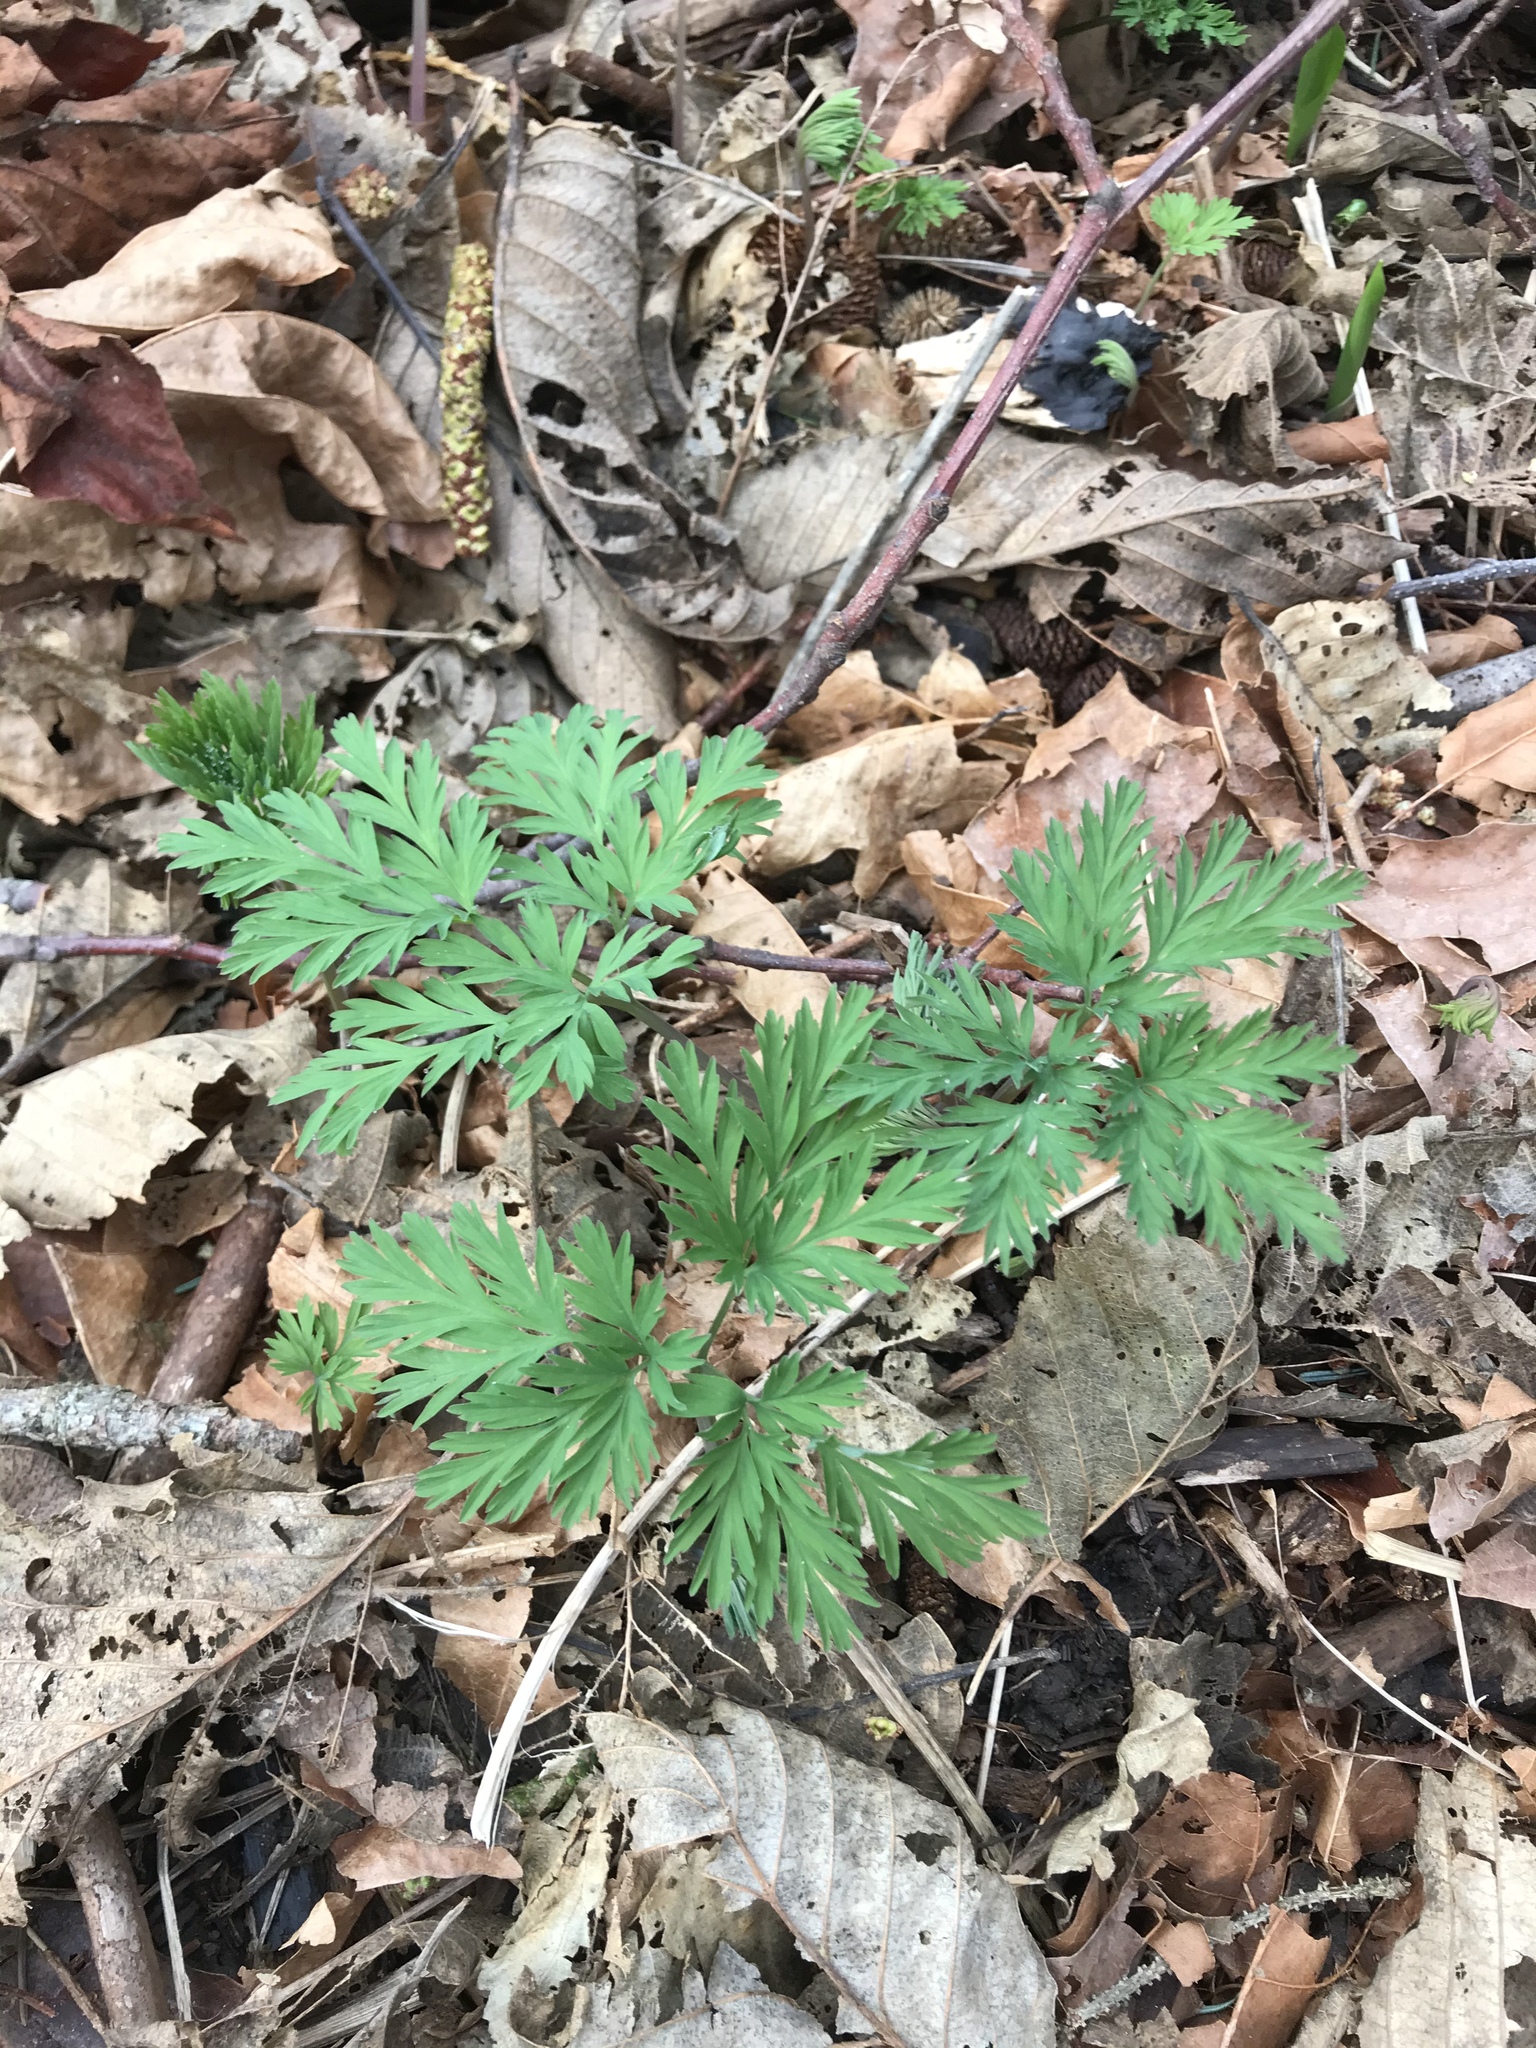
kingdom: Plantae
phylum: Tracheophyta
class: Magnoliopsida
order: Ranunculales
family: Papaveraceae
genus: Dicentra
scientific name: Dicentra formosa
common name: Bleeding-heart
